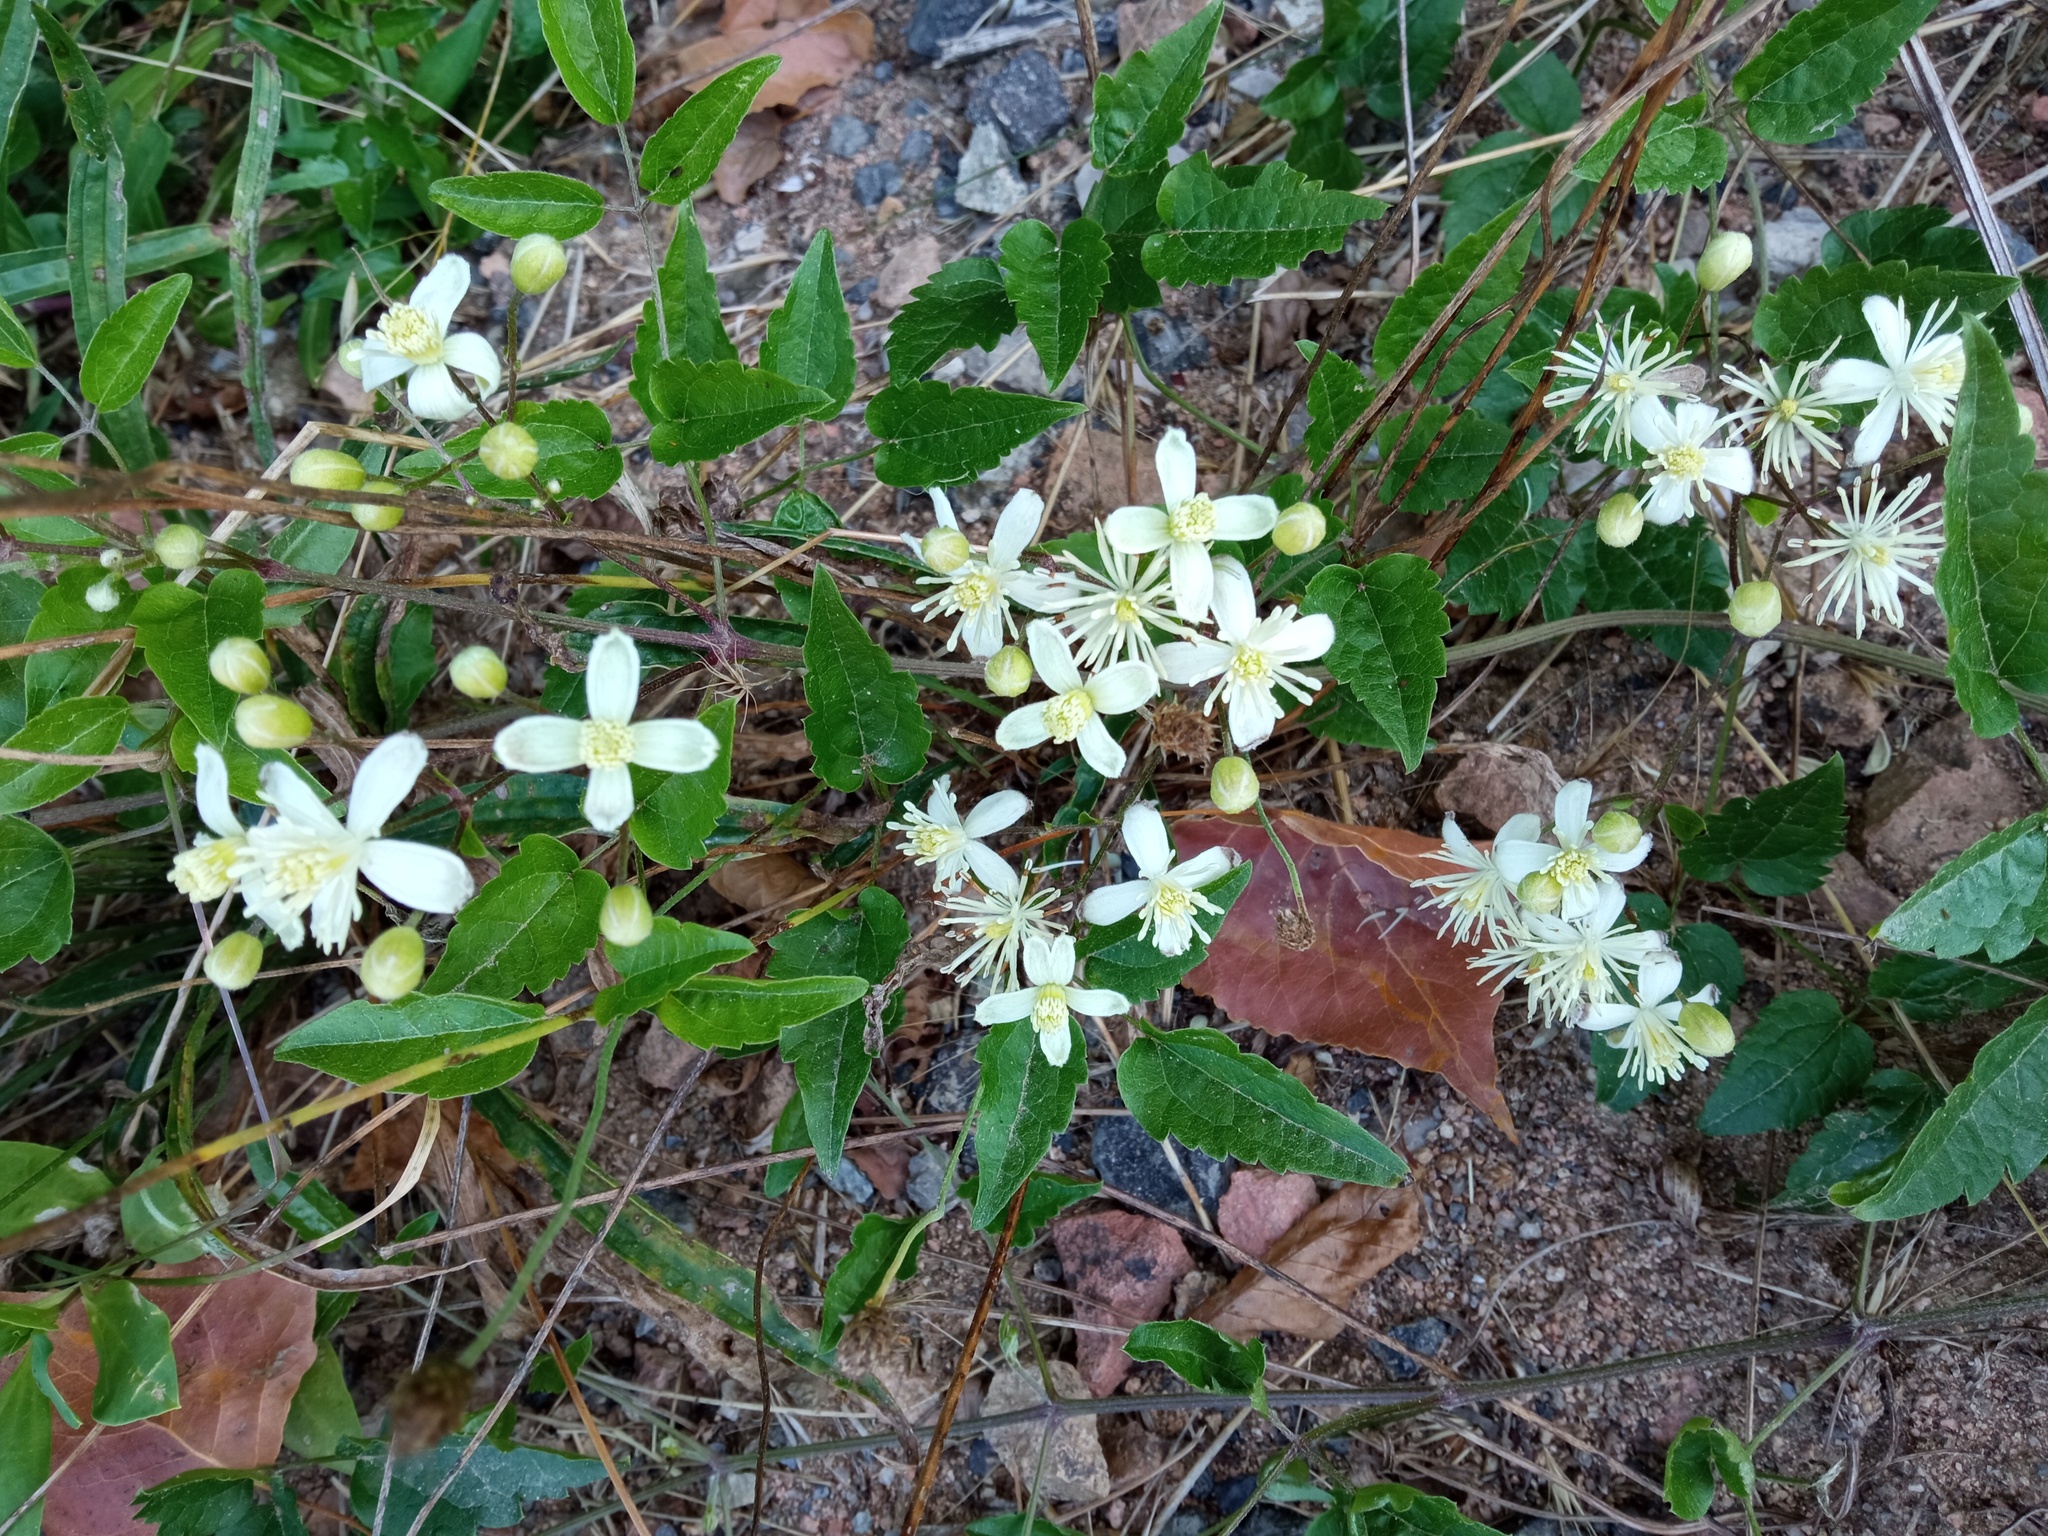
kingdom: Plantae
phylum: Tracheophyta
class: Magnoliopsida
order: Ranunculales
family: Ranunculaceae
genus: Clematis
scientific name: Clematis vitalba
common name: Evergreen clematis
